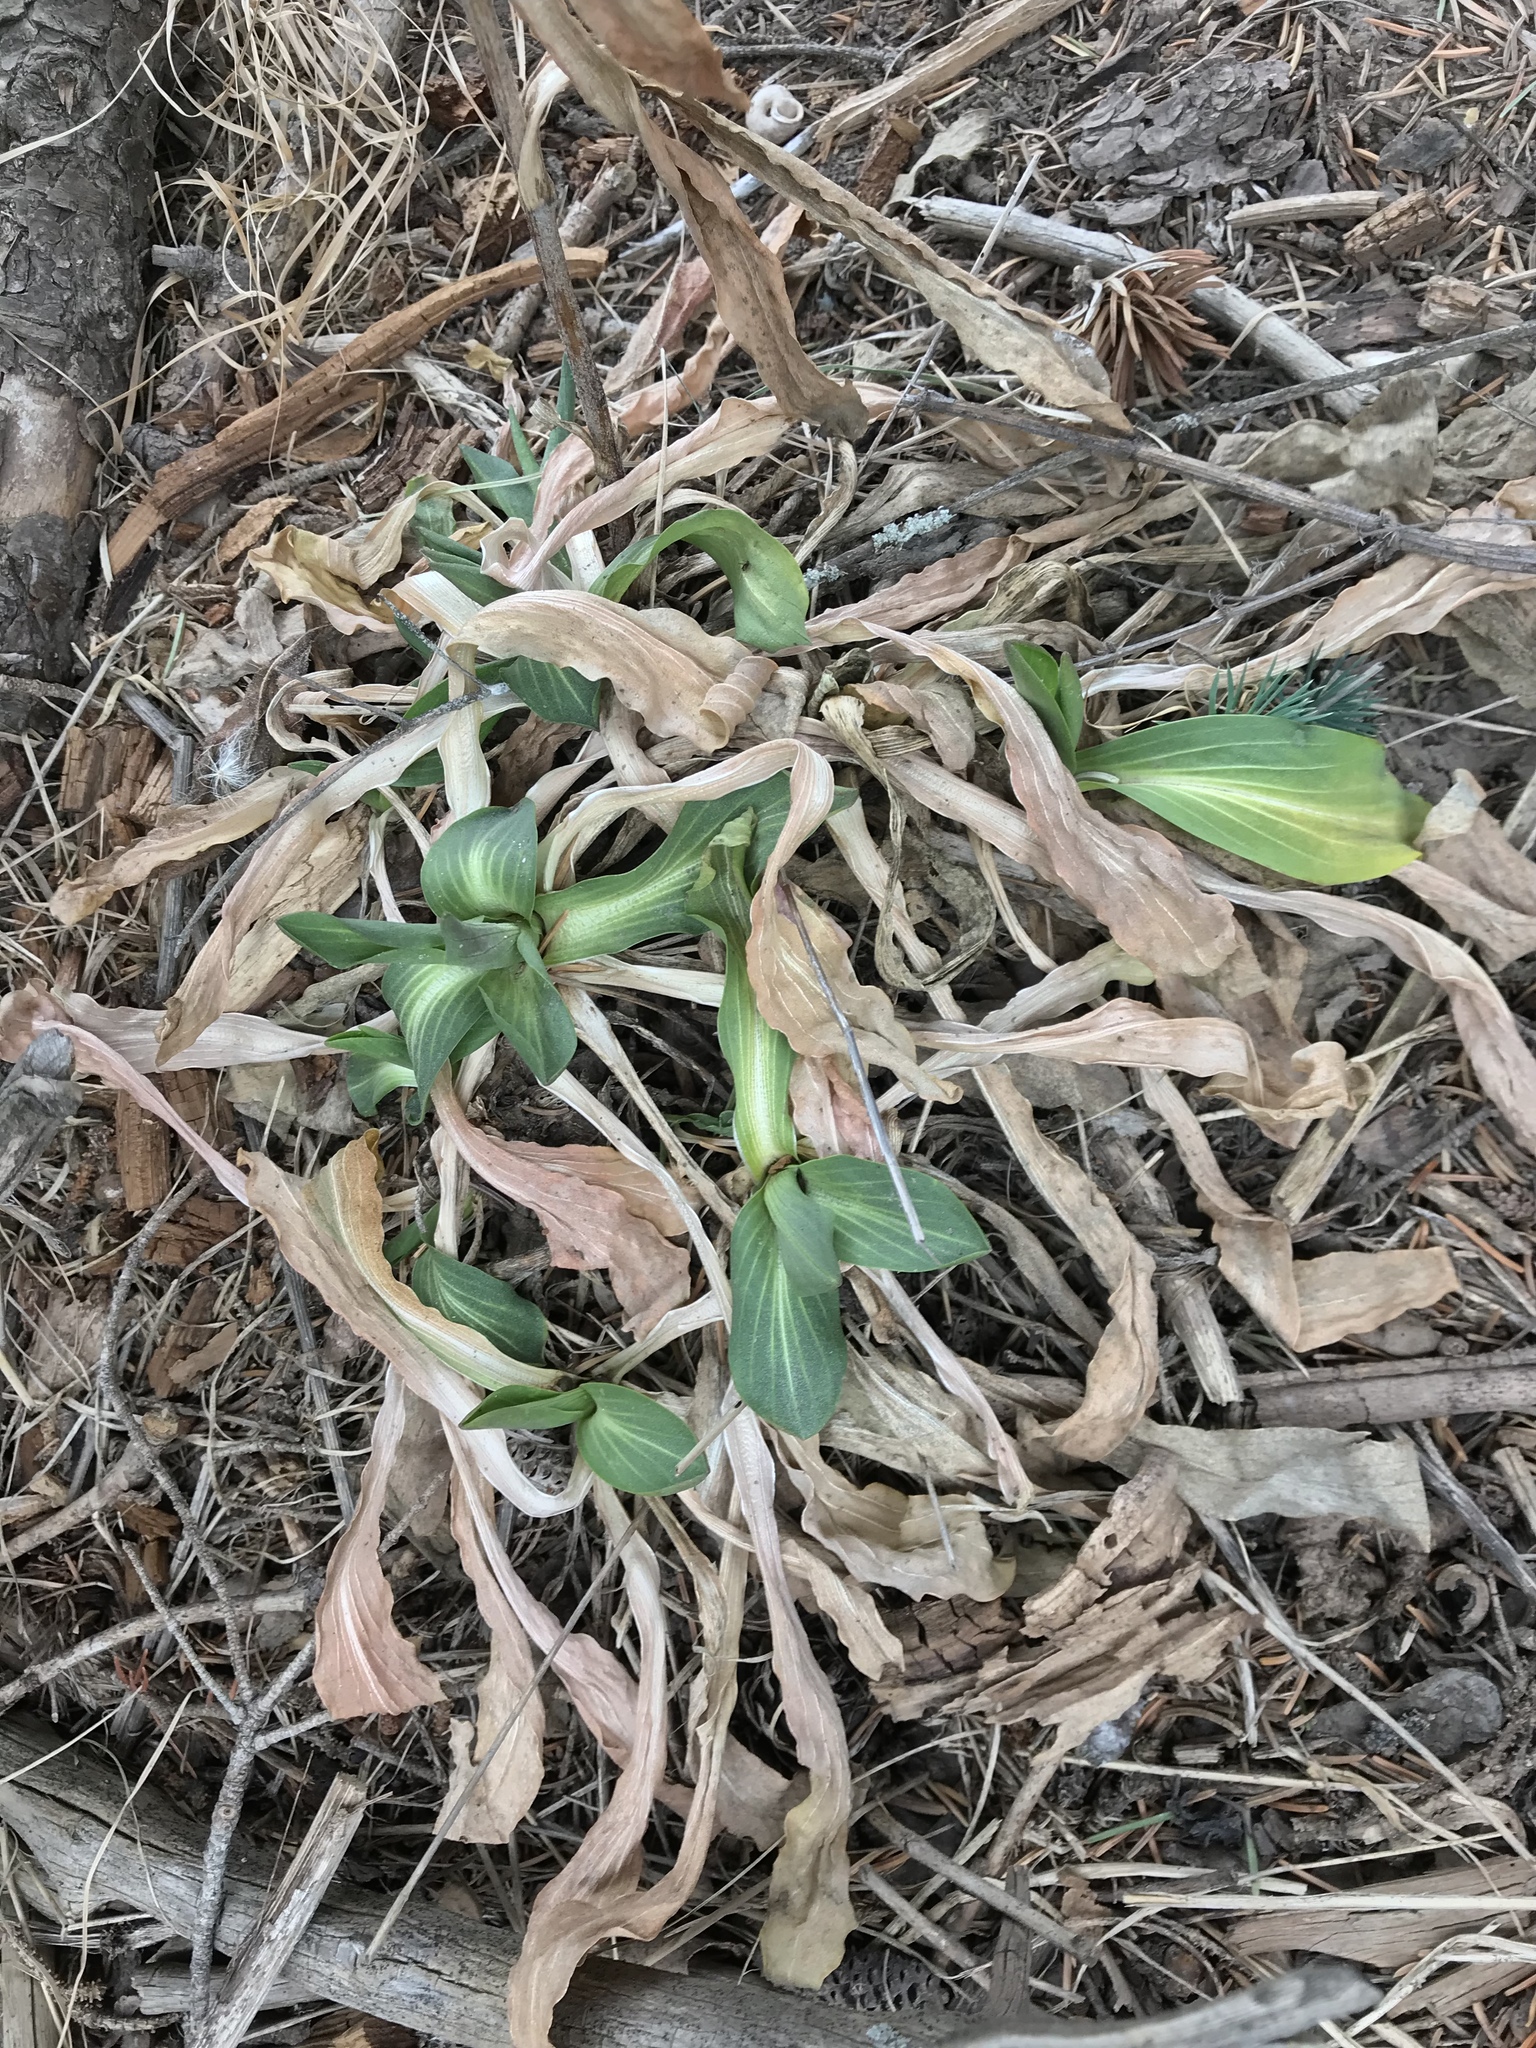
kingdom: Plantae
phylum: Tracheophyta
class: Magnoliopsida
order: Asterales
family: Asteraceae
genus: Hymenoxys
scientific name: Hymenoxys hoopesii
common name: Orange-sneezeweed
